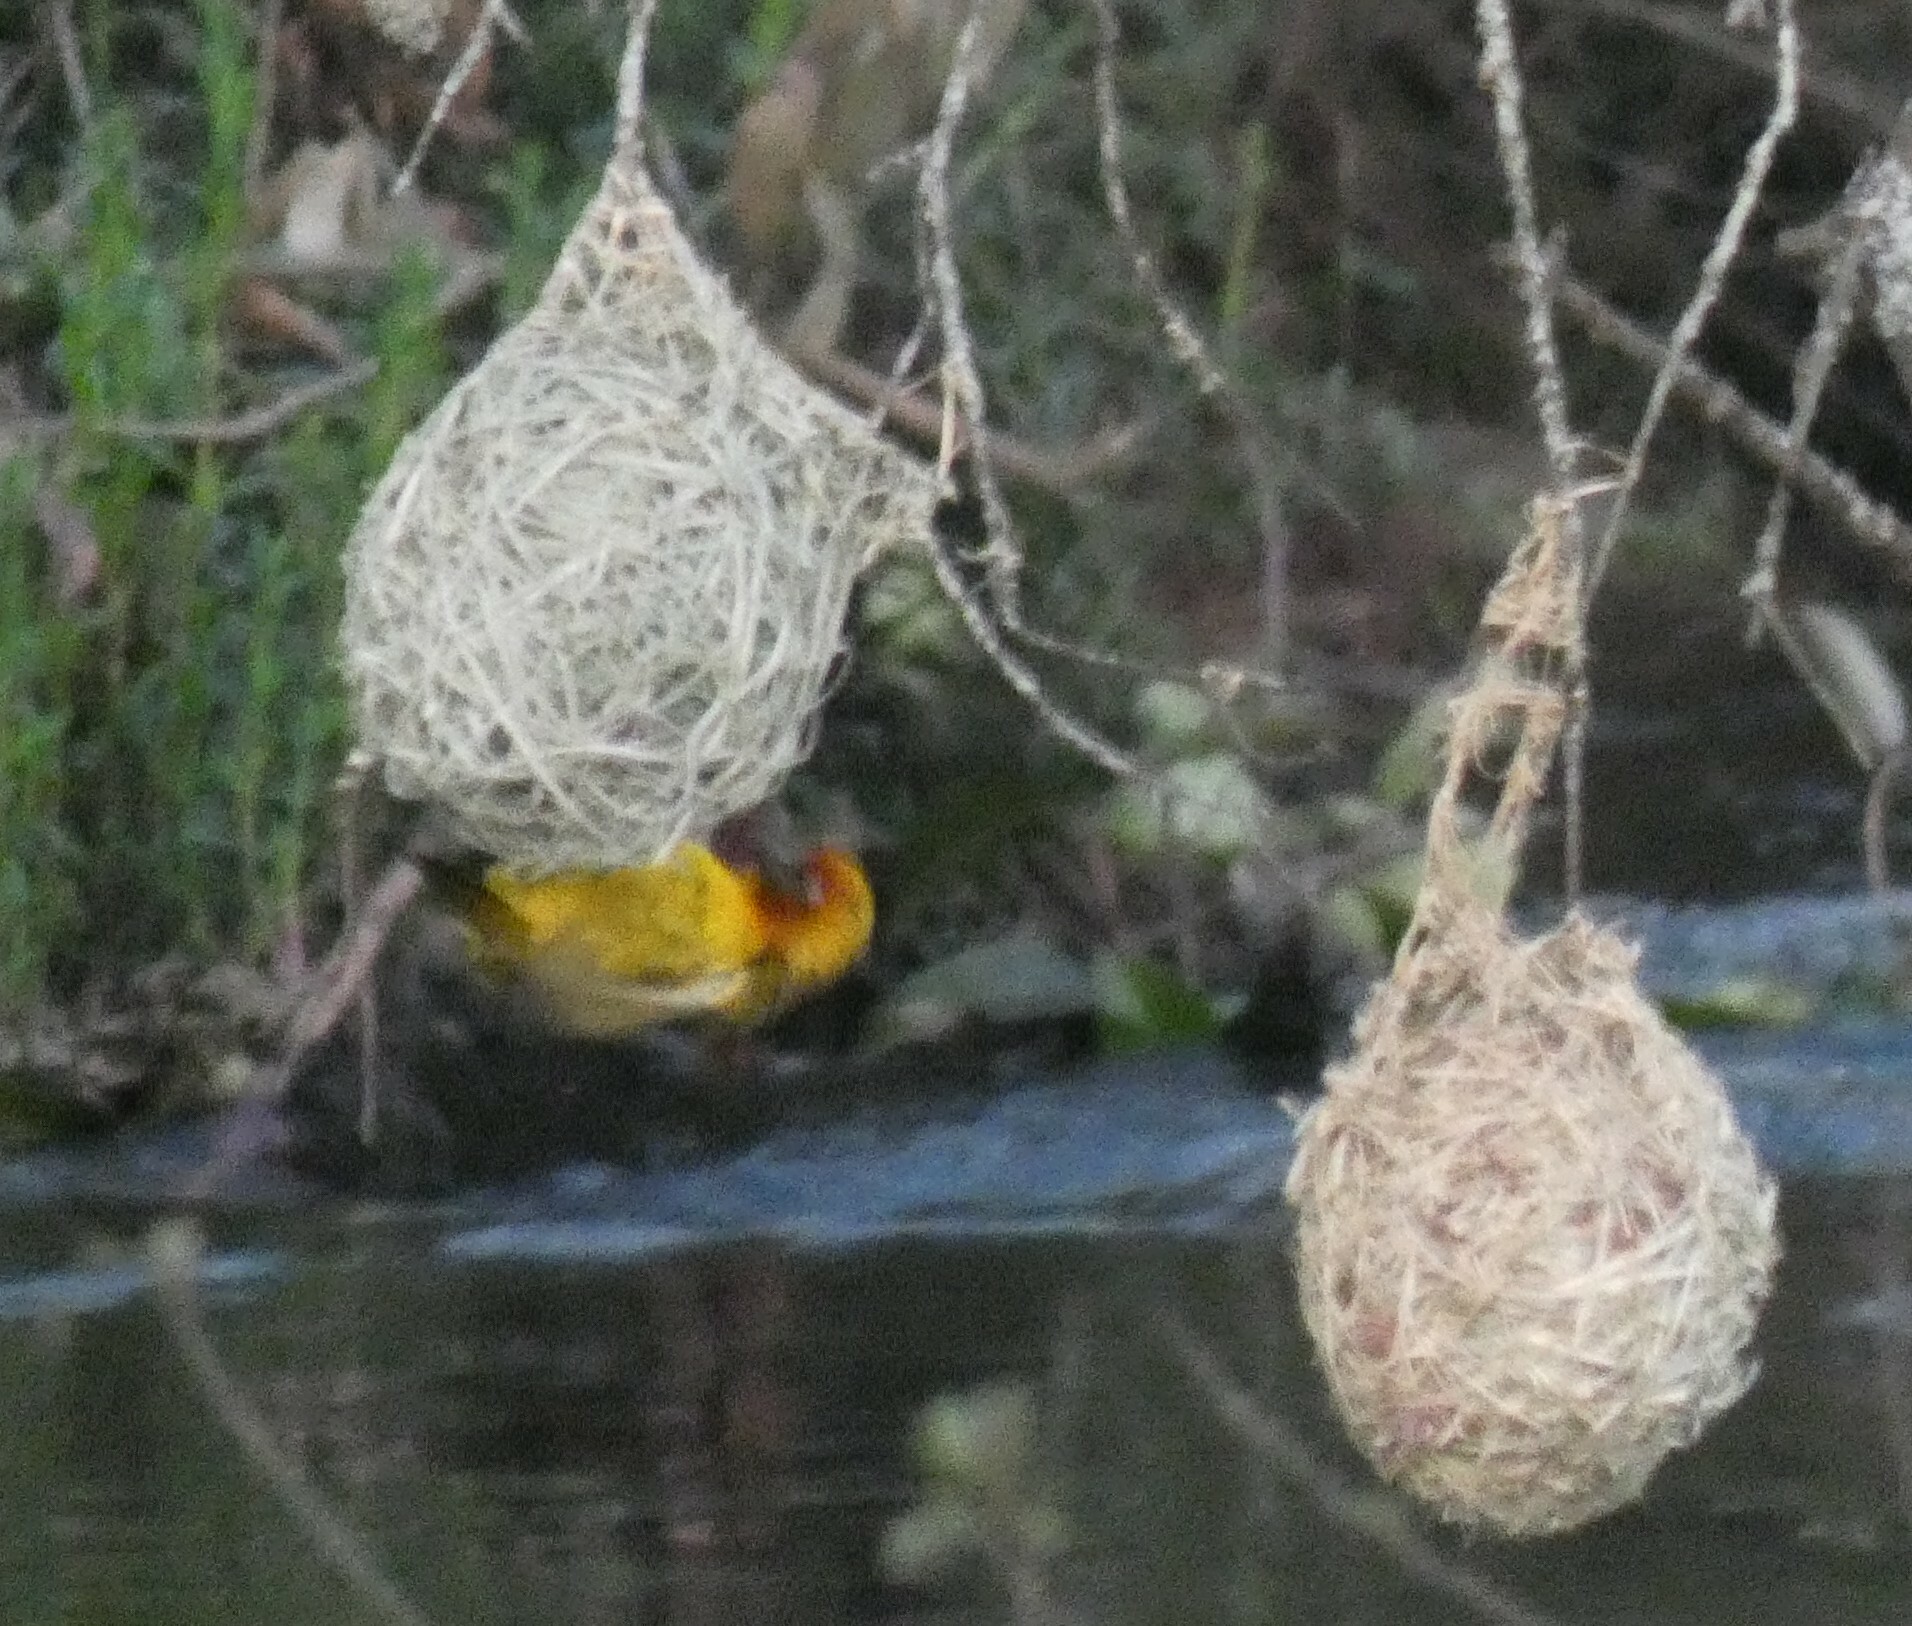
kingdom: Animalia
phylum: Chordata
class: Aves
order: Passeriformes
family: Ploceidae
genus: Ploceus
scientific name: Ploceus capensis
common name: Cape weaver
